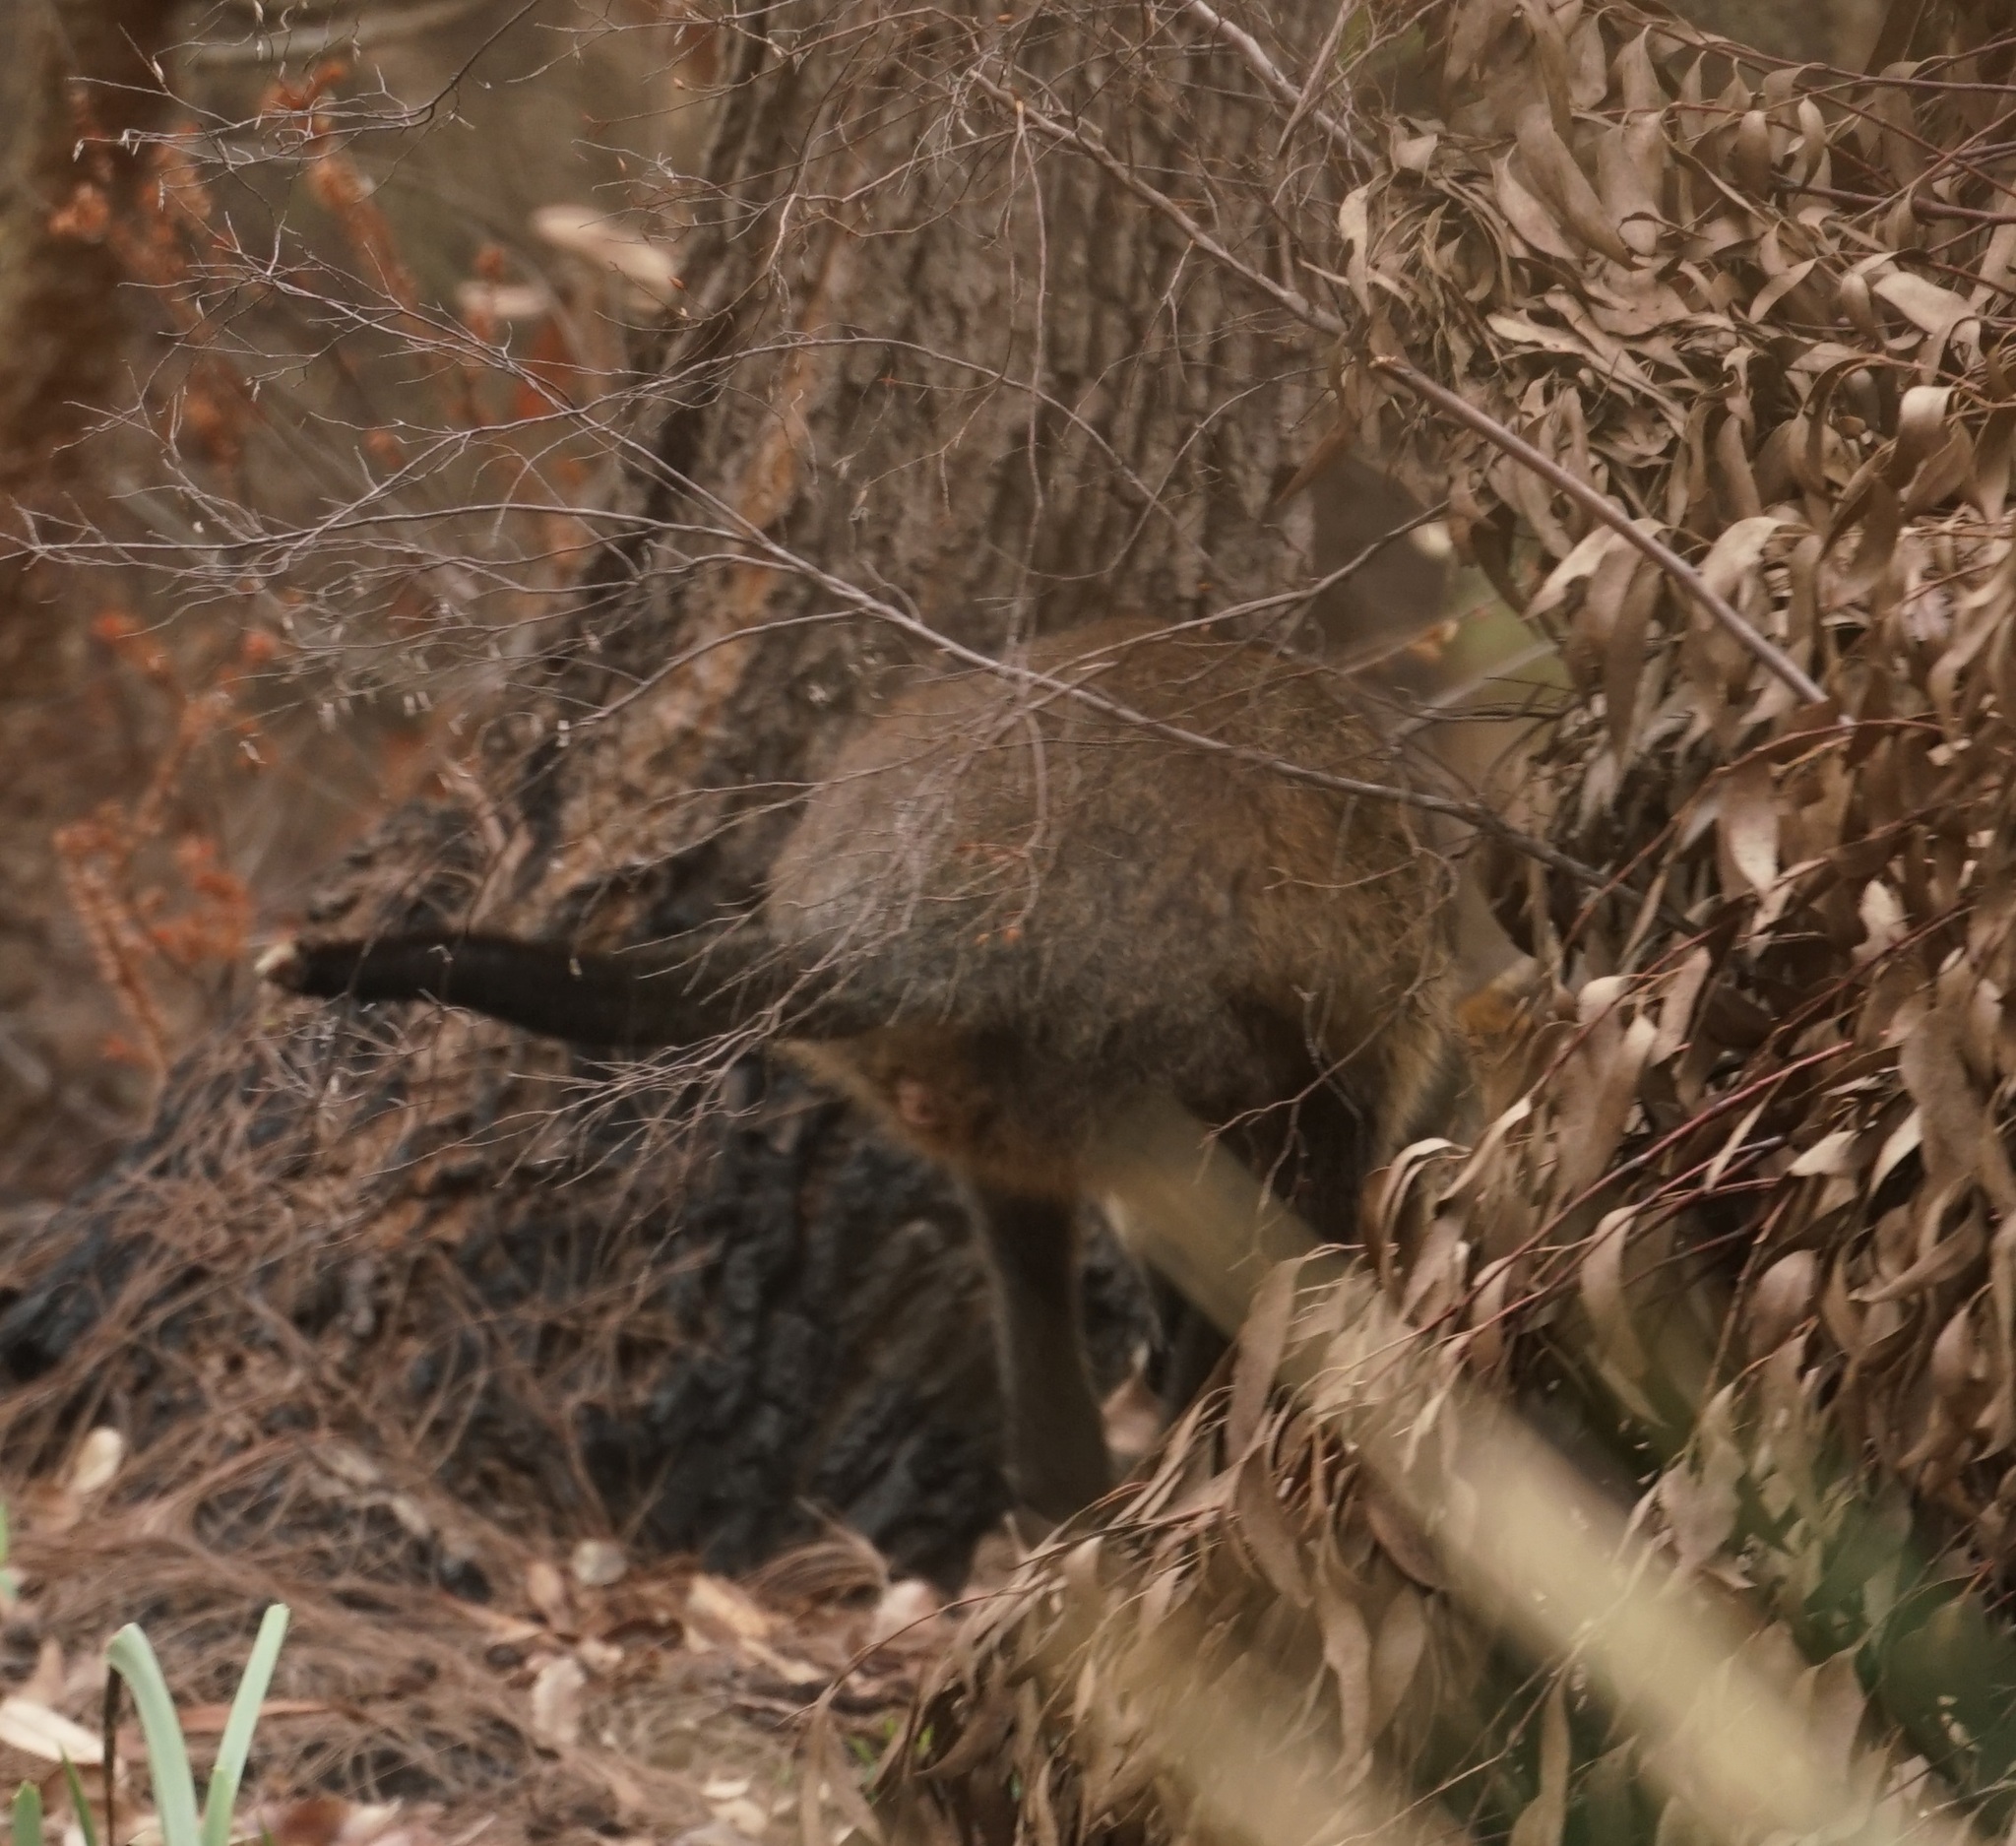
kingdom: Animalia
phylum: Chordata
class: Mammalia
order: Diprotodontia
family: Macropodidae
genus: Wallabia
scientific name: Wallabia bicolor
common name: Swamp wallaby
